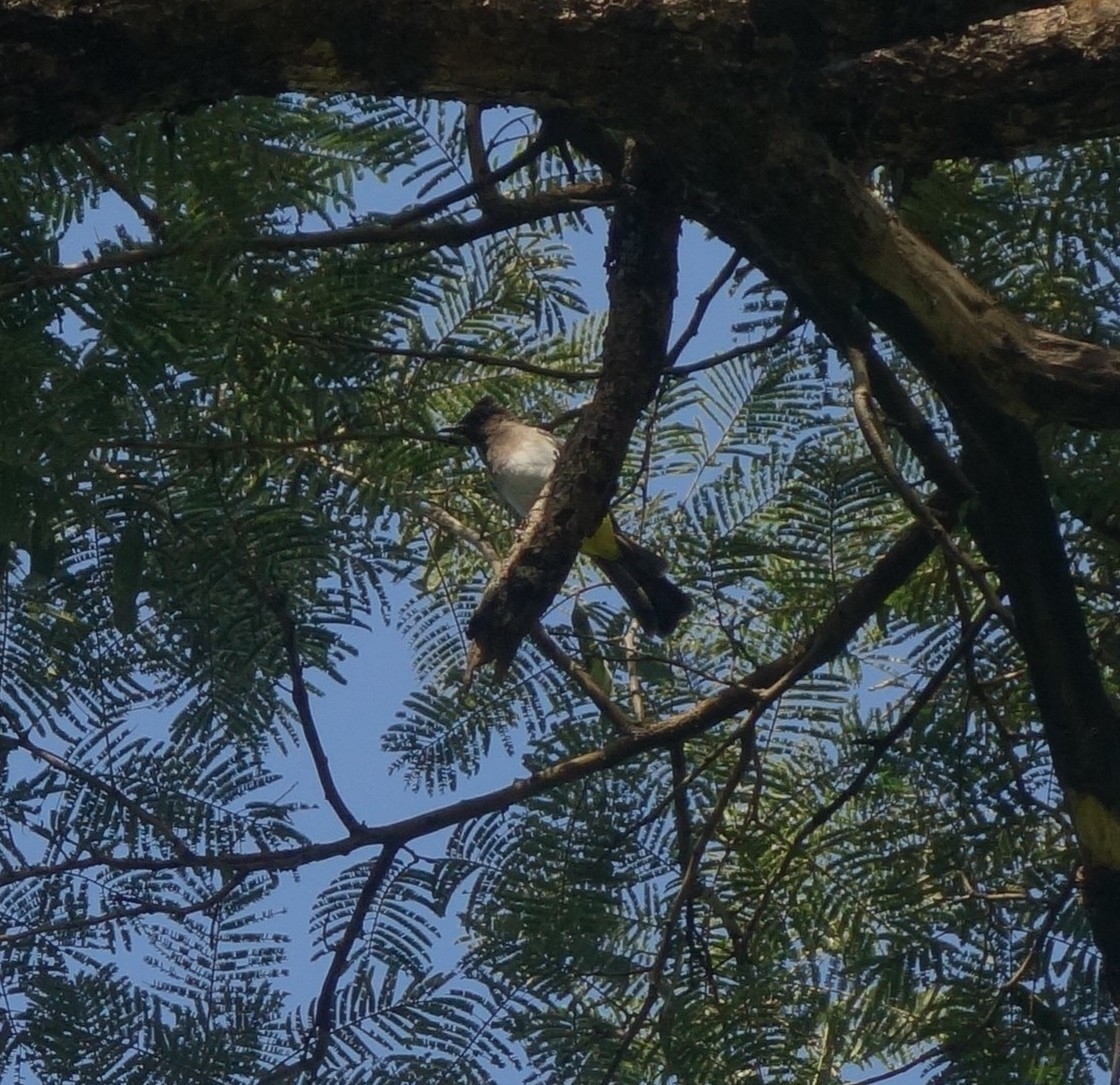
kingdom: Animalia
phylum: Chordata
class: Aves
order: Passeriformes
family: Pycnonotidae
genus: Pycnonotus
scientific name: Pycnonotus barbatus
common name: Common bulbul
